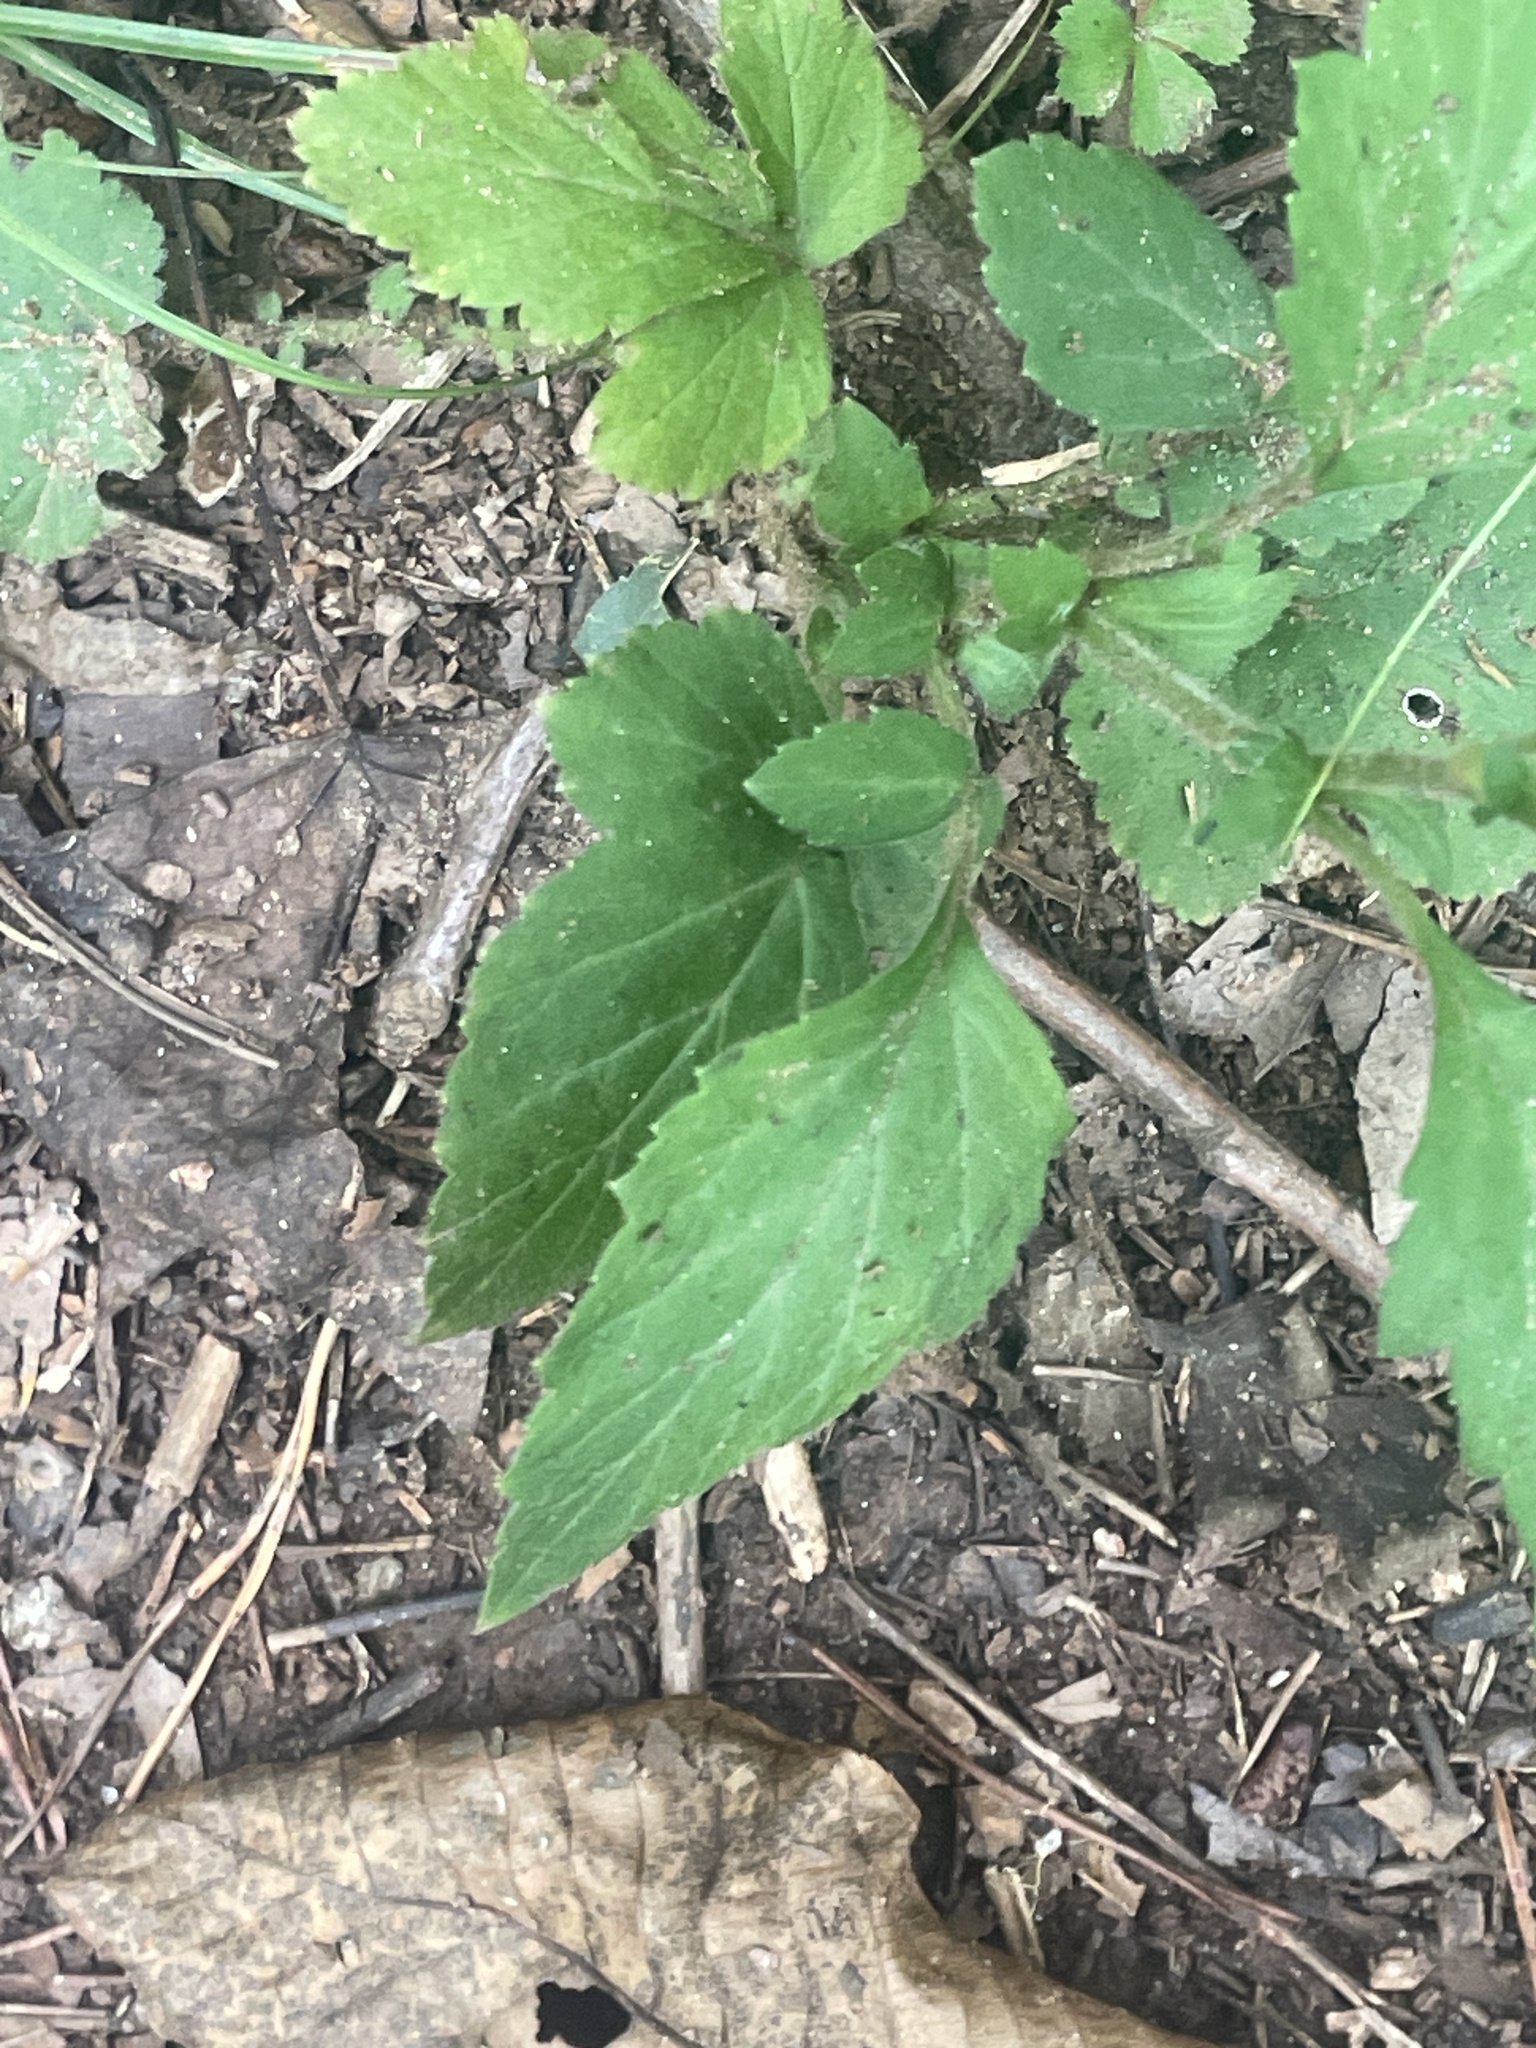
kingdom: Plantae
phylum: Tracheophyta
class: Magnoliopsida
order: Rosales
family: Rosaceae
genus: Geum
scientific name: Geum virginianum
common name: Cream avens
